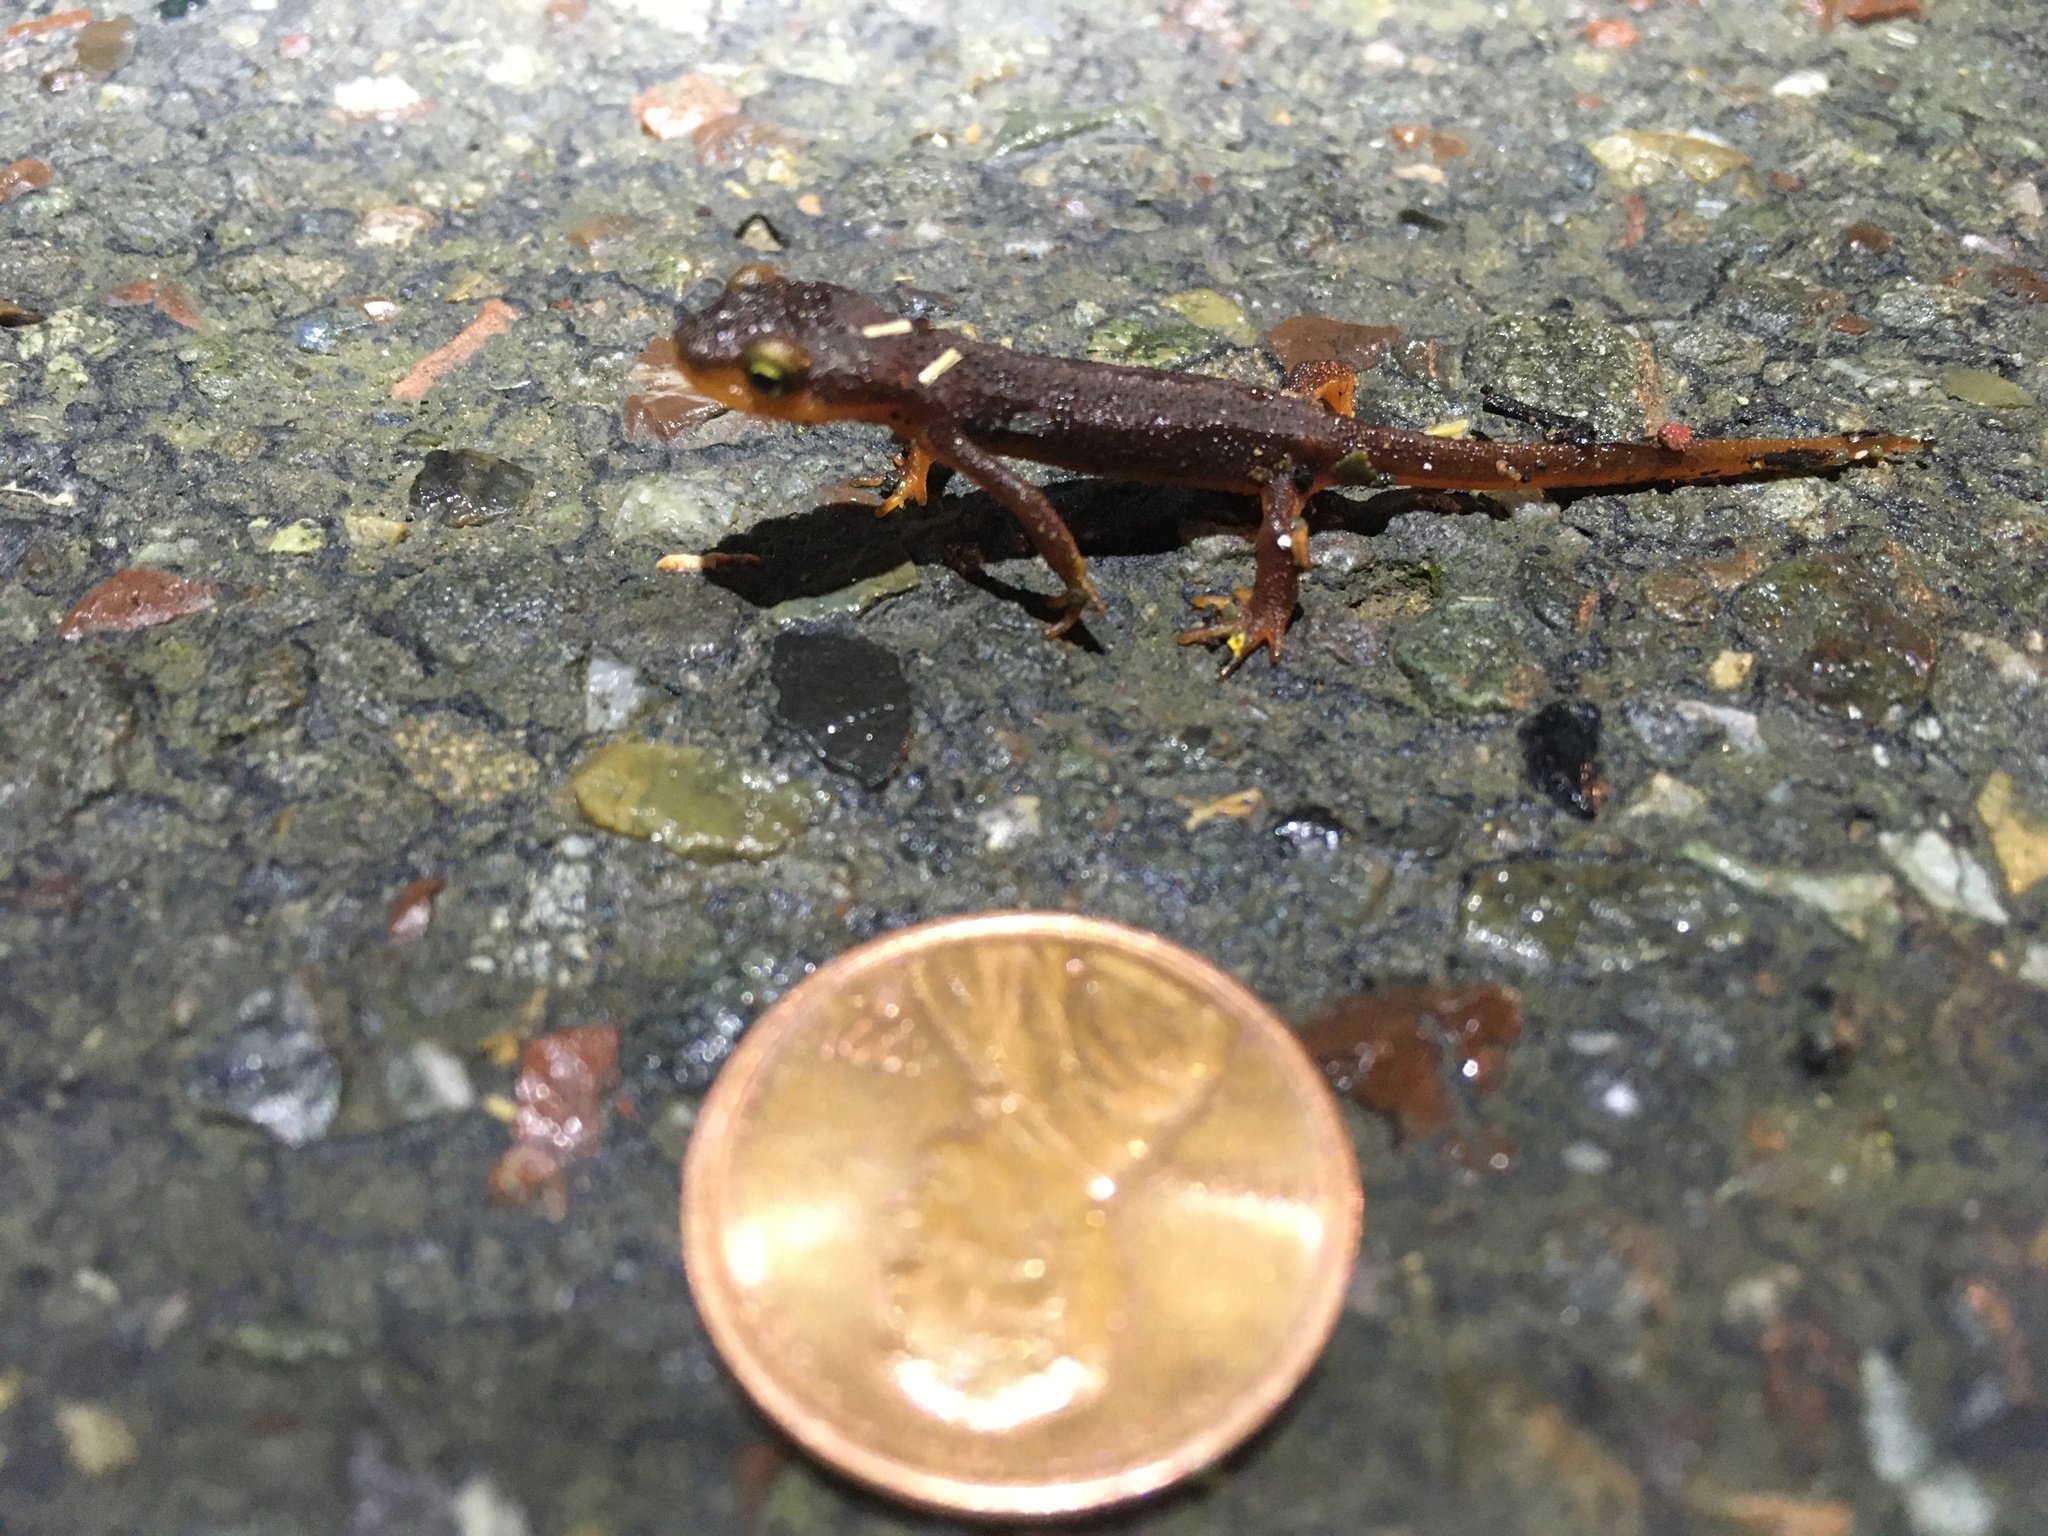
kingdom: Animalia
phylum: Chordata
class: Amphibia
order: Caudata
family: Salamandridae
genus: Taricha
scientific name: Taricha torosa
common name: California newt
